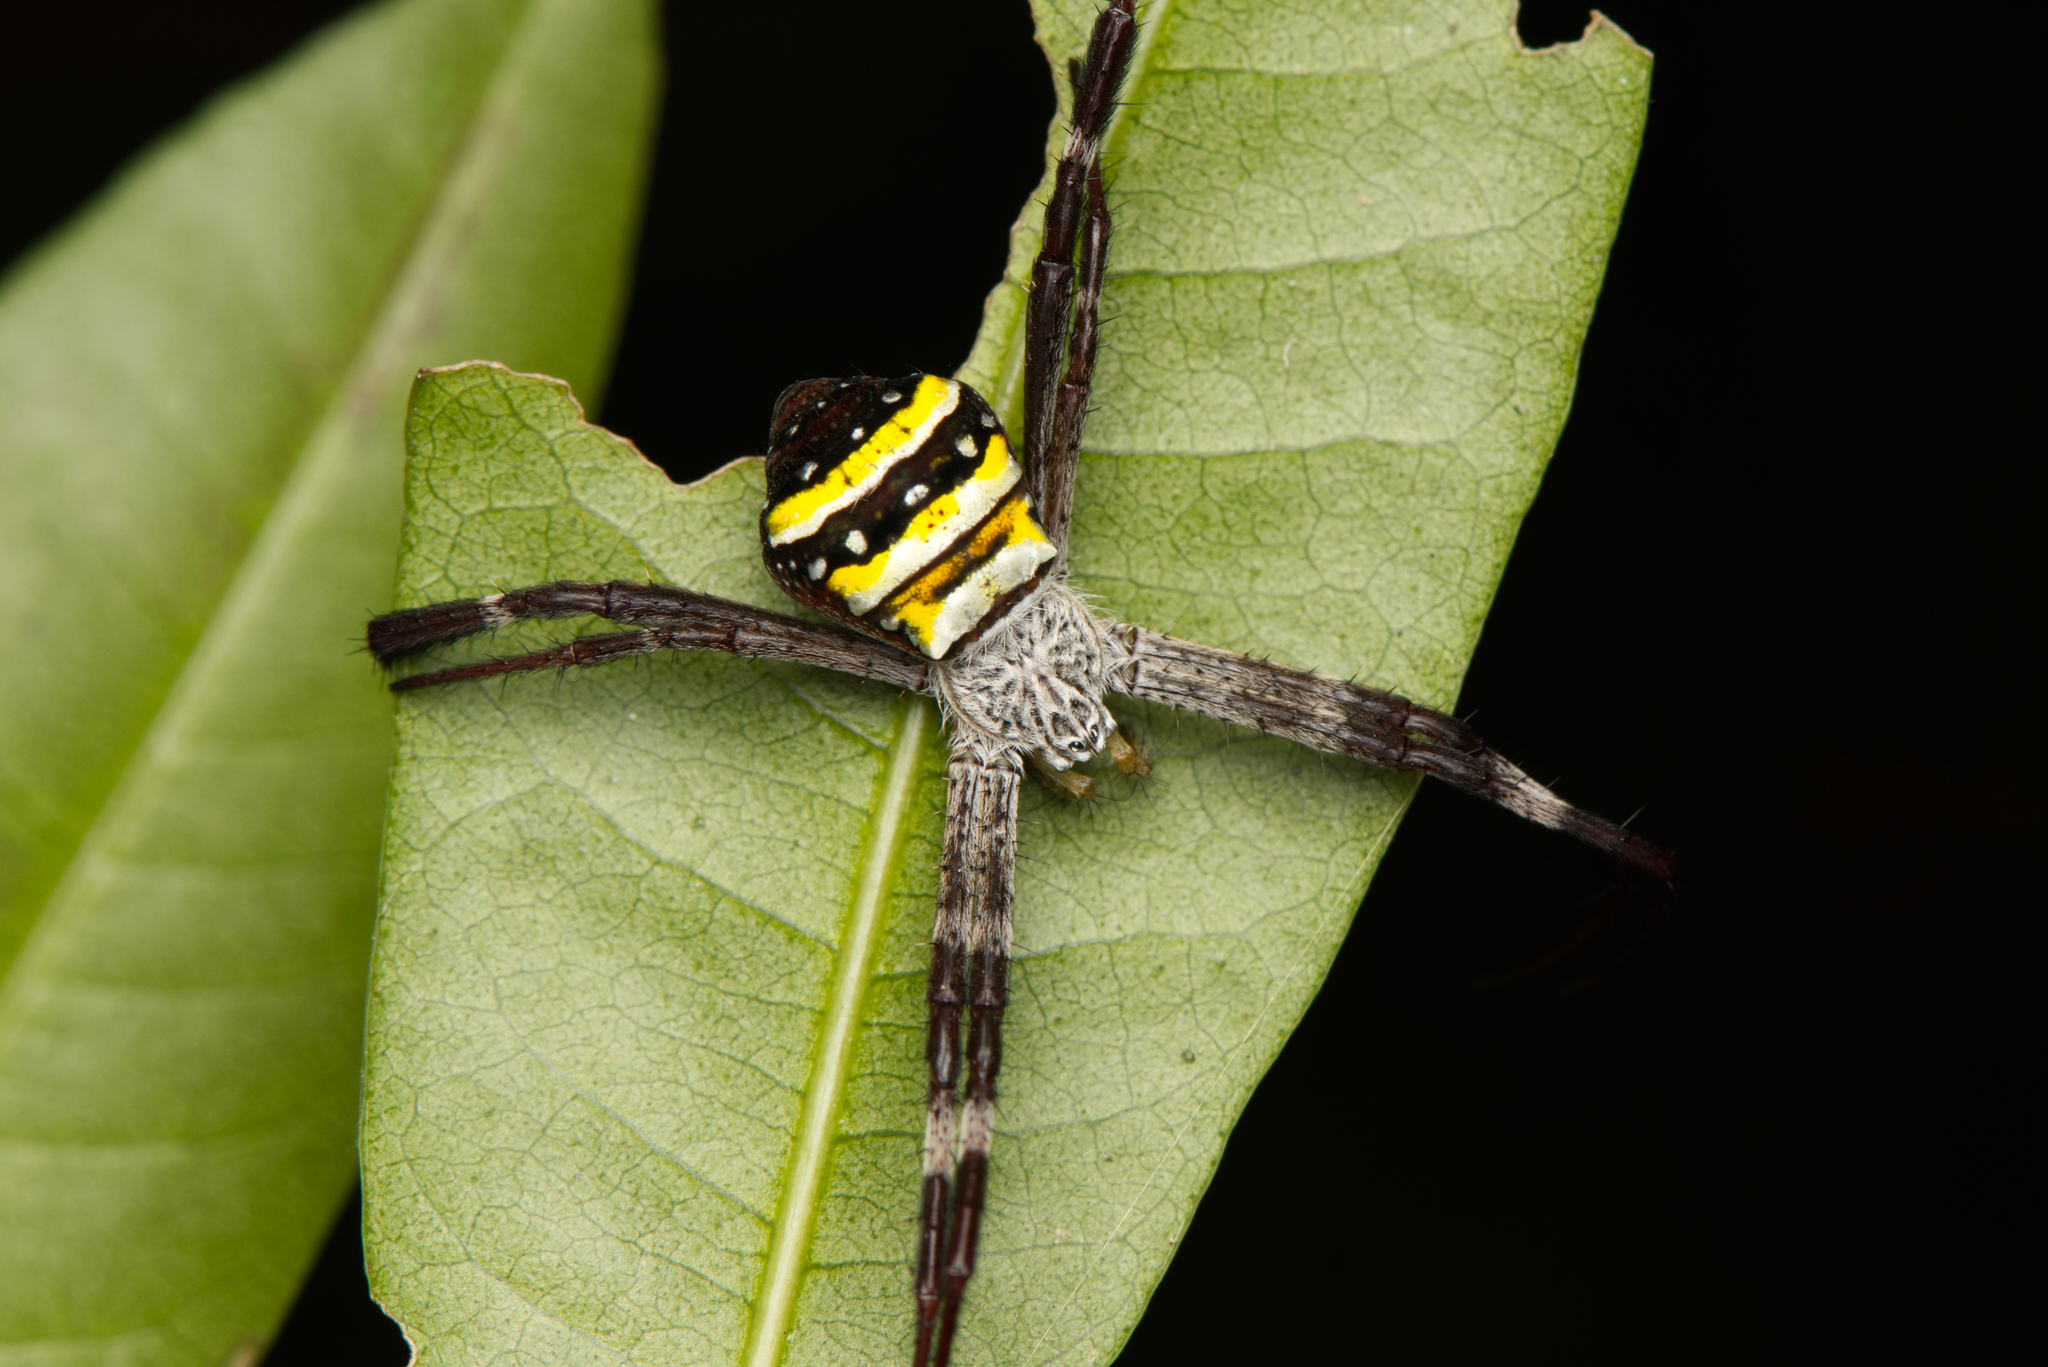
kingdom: Animalia
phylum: Arthropoda
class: Arachnida
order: Araneae
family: Araneidae
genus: Argiope
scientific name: Argiope aetherea
